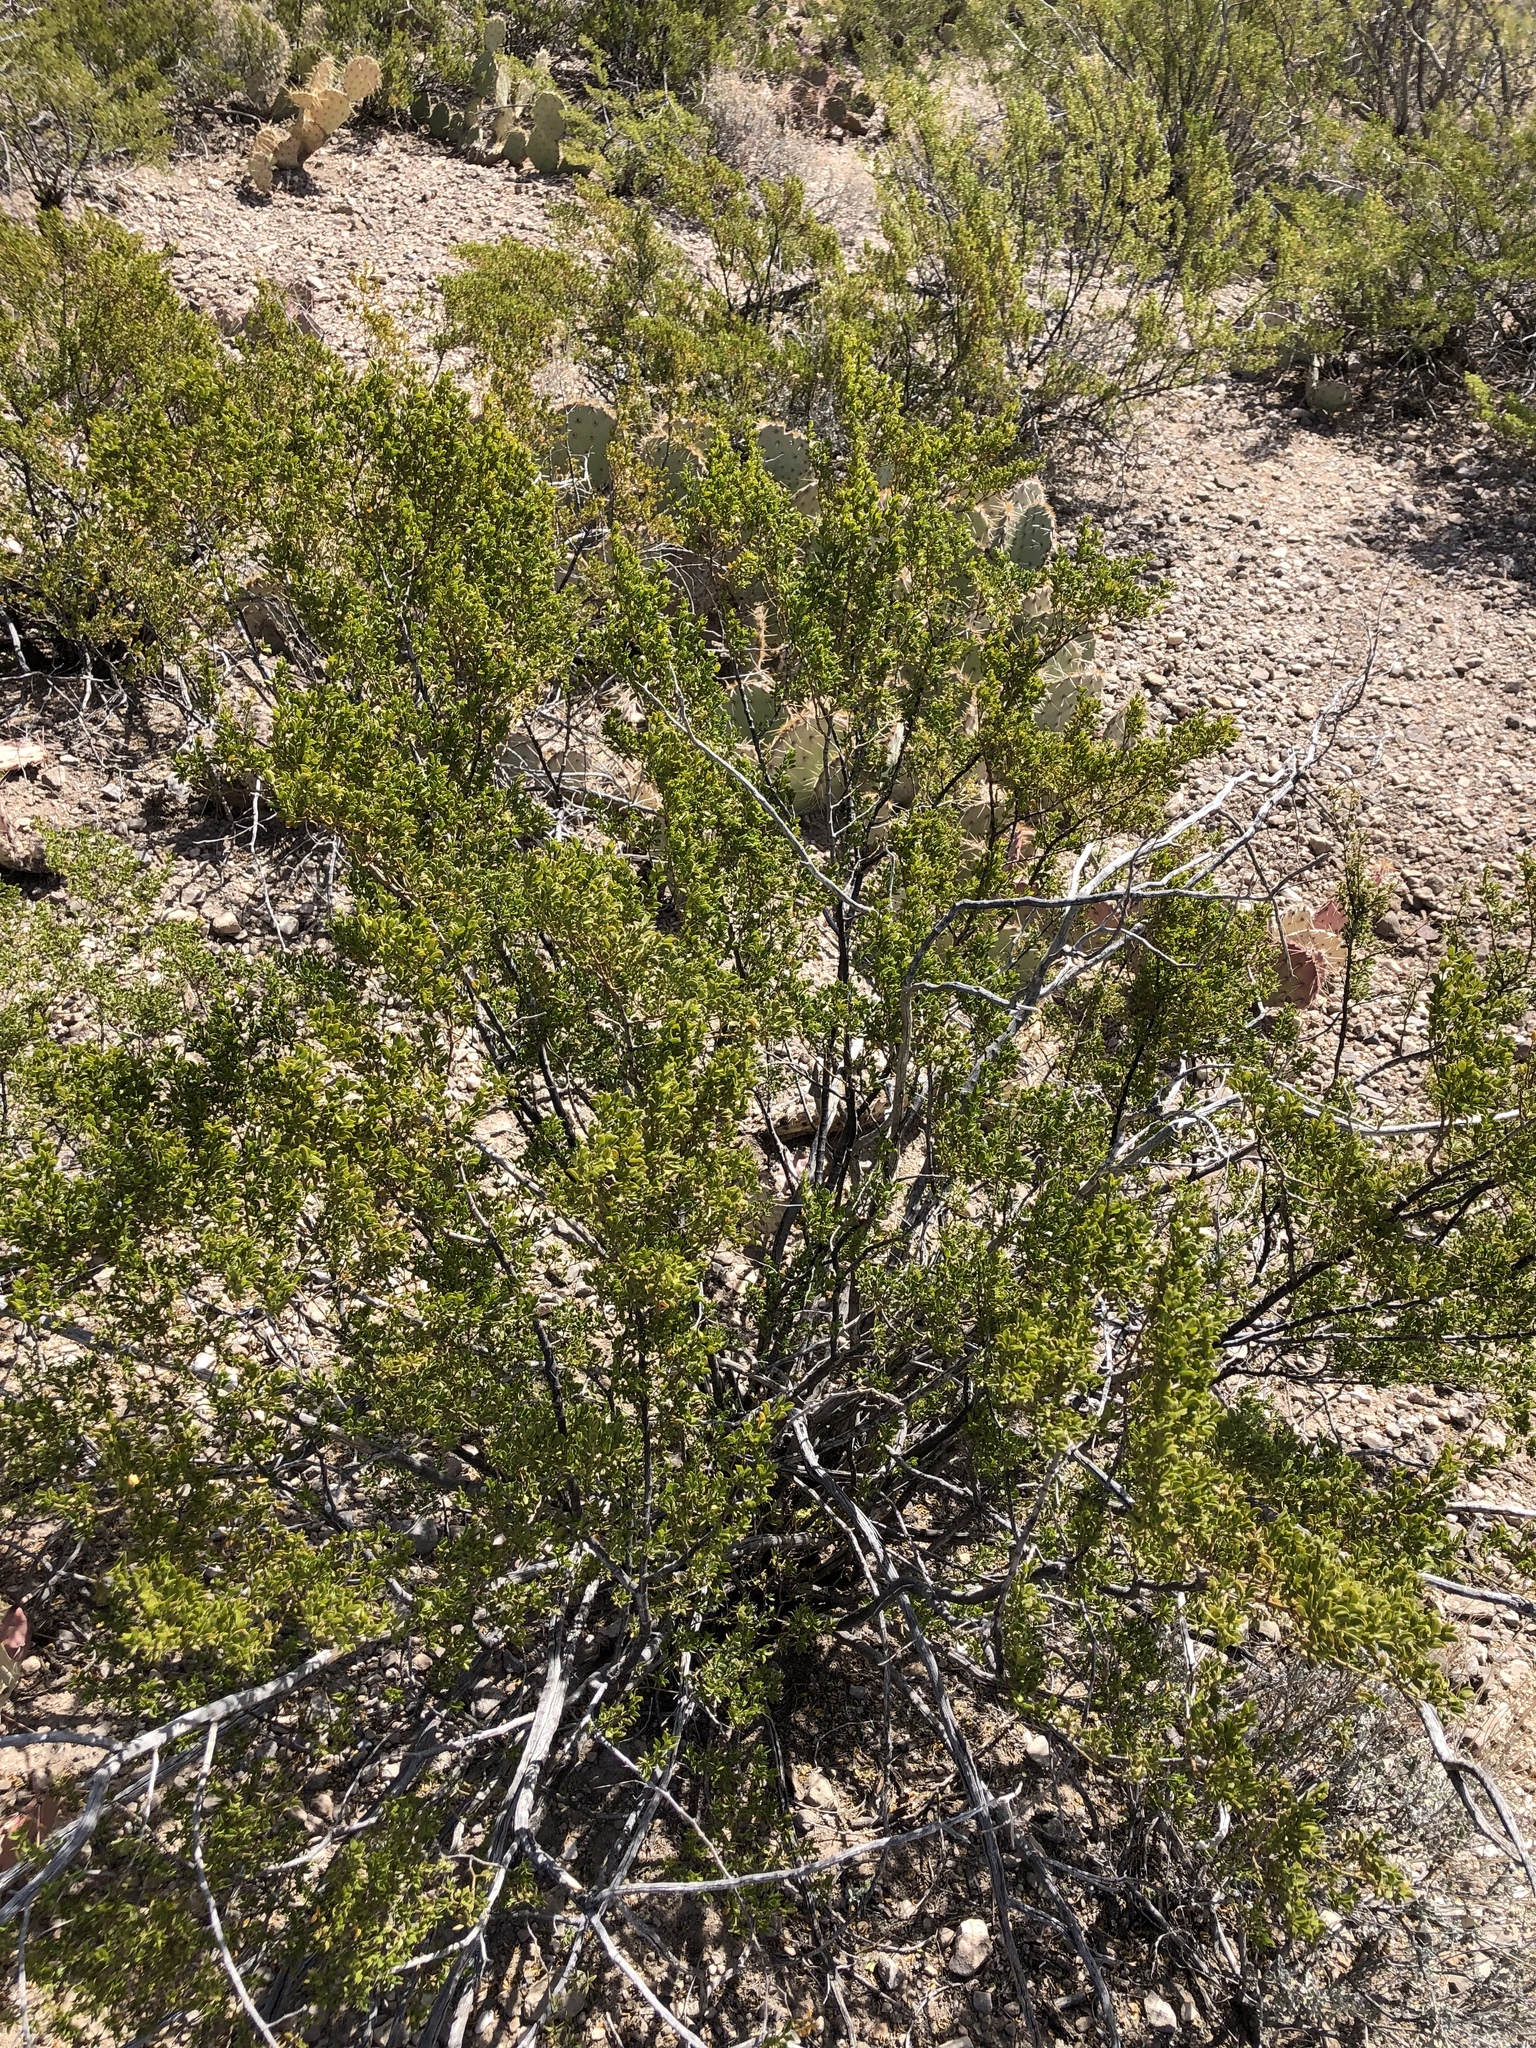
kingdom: Plantae
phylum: Tracheophyta
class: Magnoliopsida
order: Zygophyllales
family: Zygophyllaceae
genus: Larrea
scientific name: Larrea tridentata
